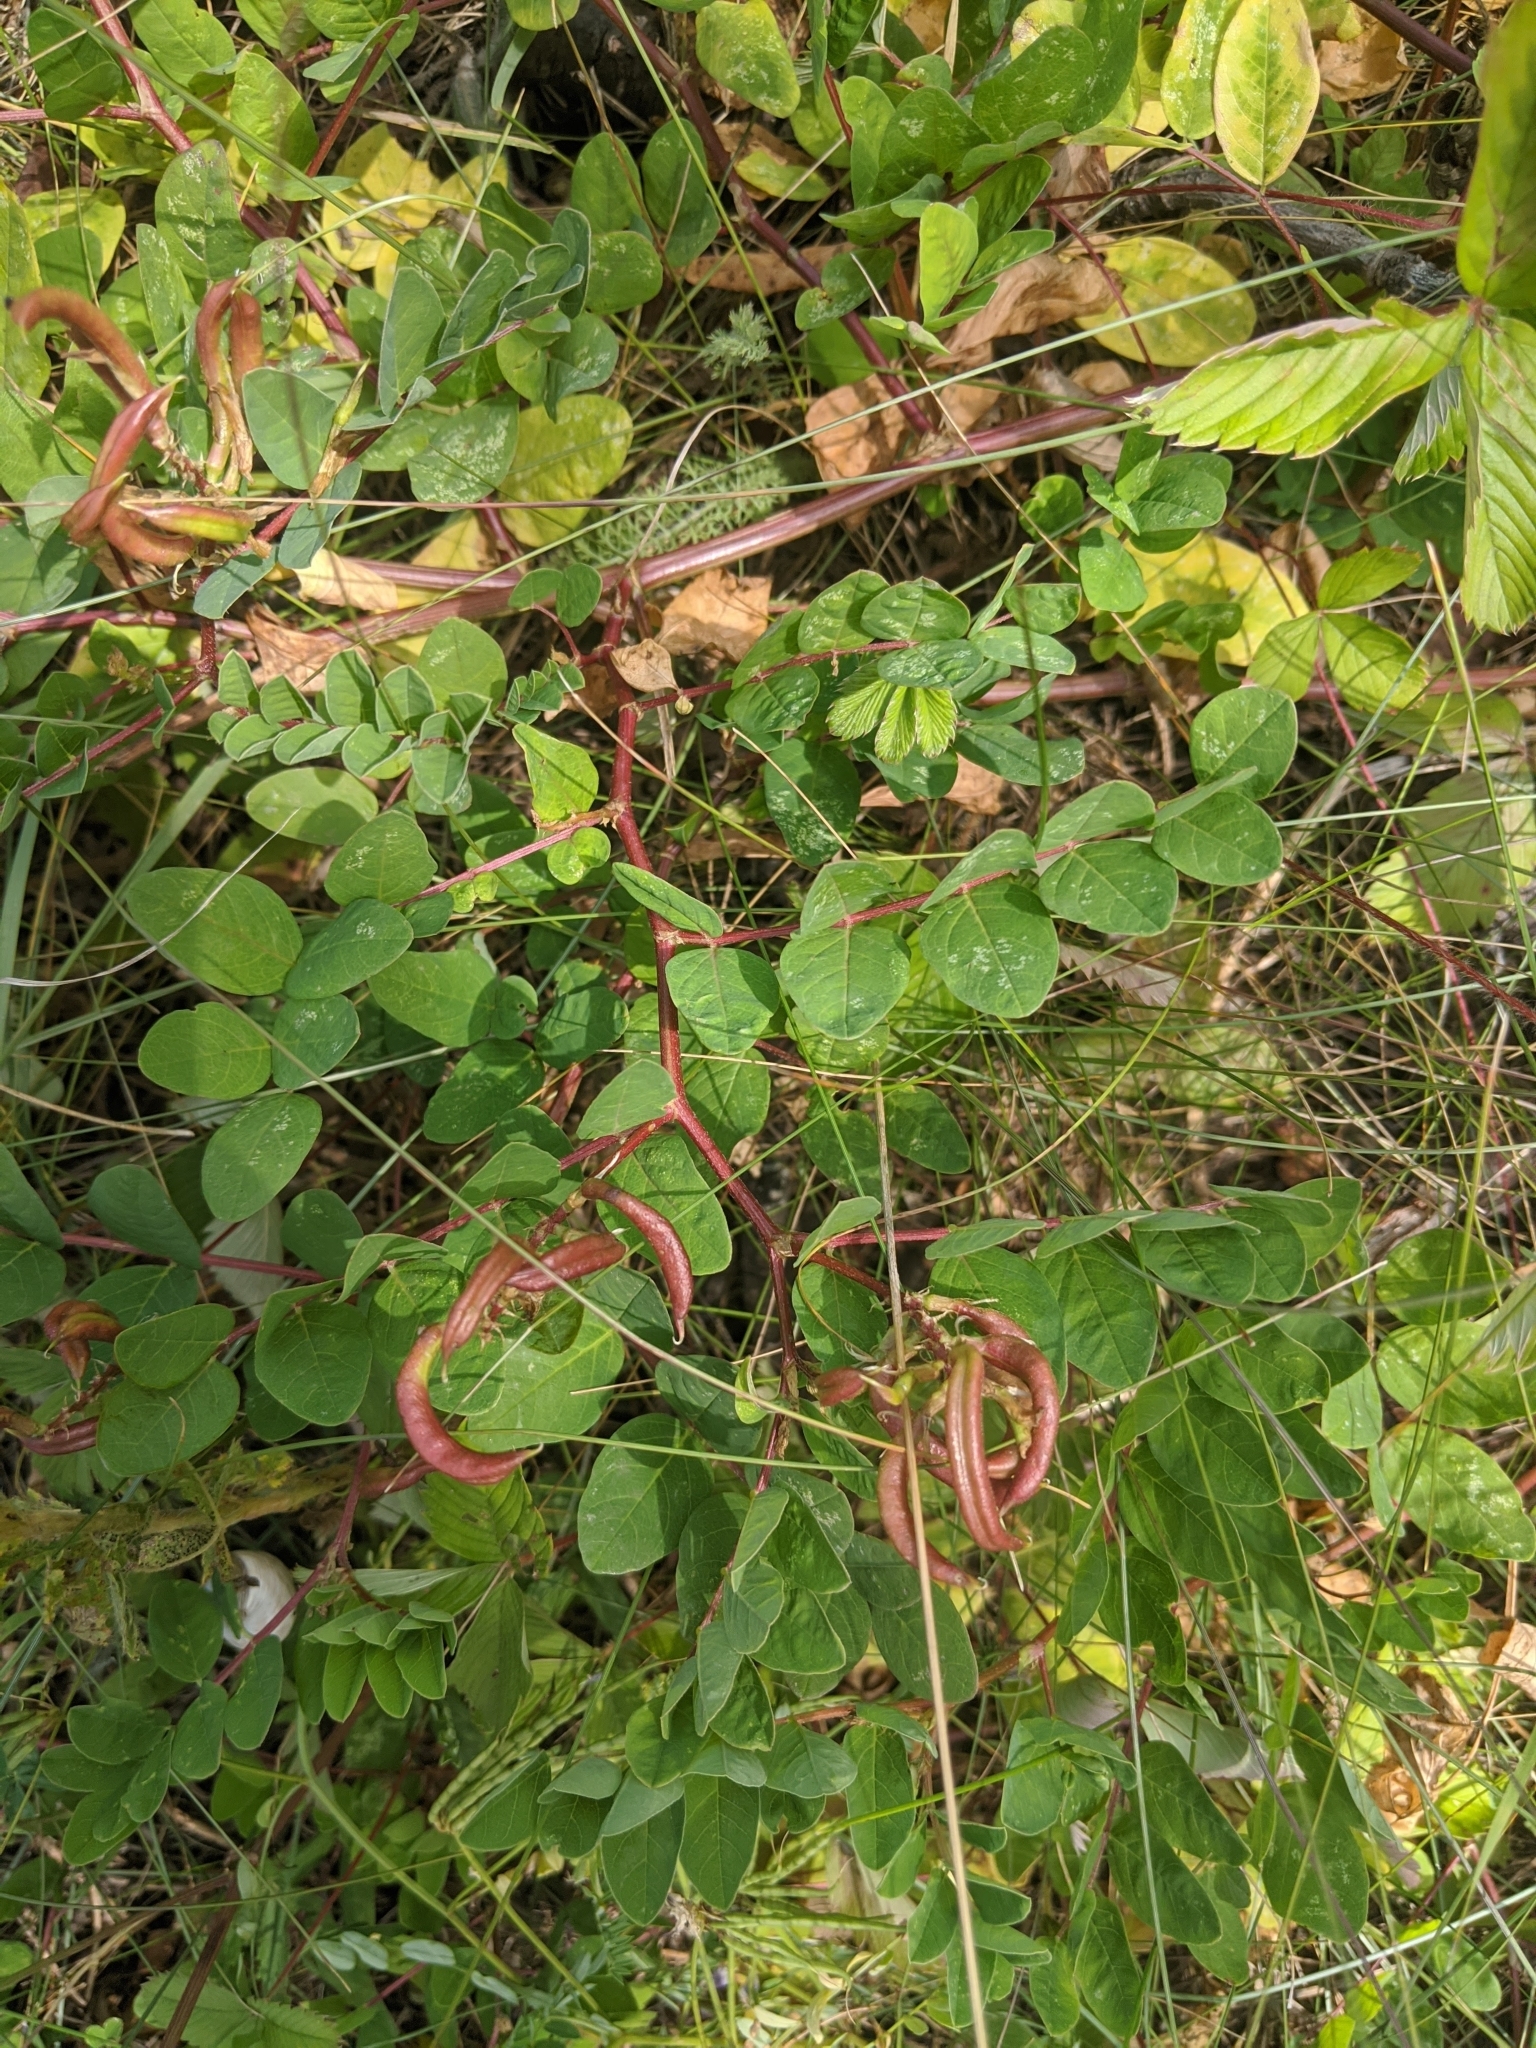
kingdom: Plantae
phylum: Tracheophyta
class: Magnoliopsida
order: Fabales
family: Fabaceae
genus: Astragalus
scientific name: Astragalus glycyphyllos
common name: Wild liquorice
